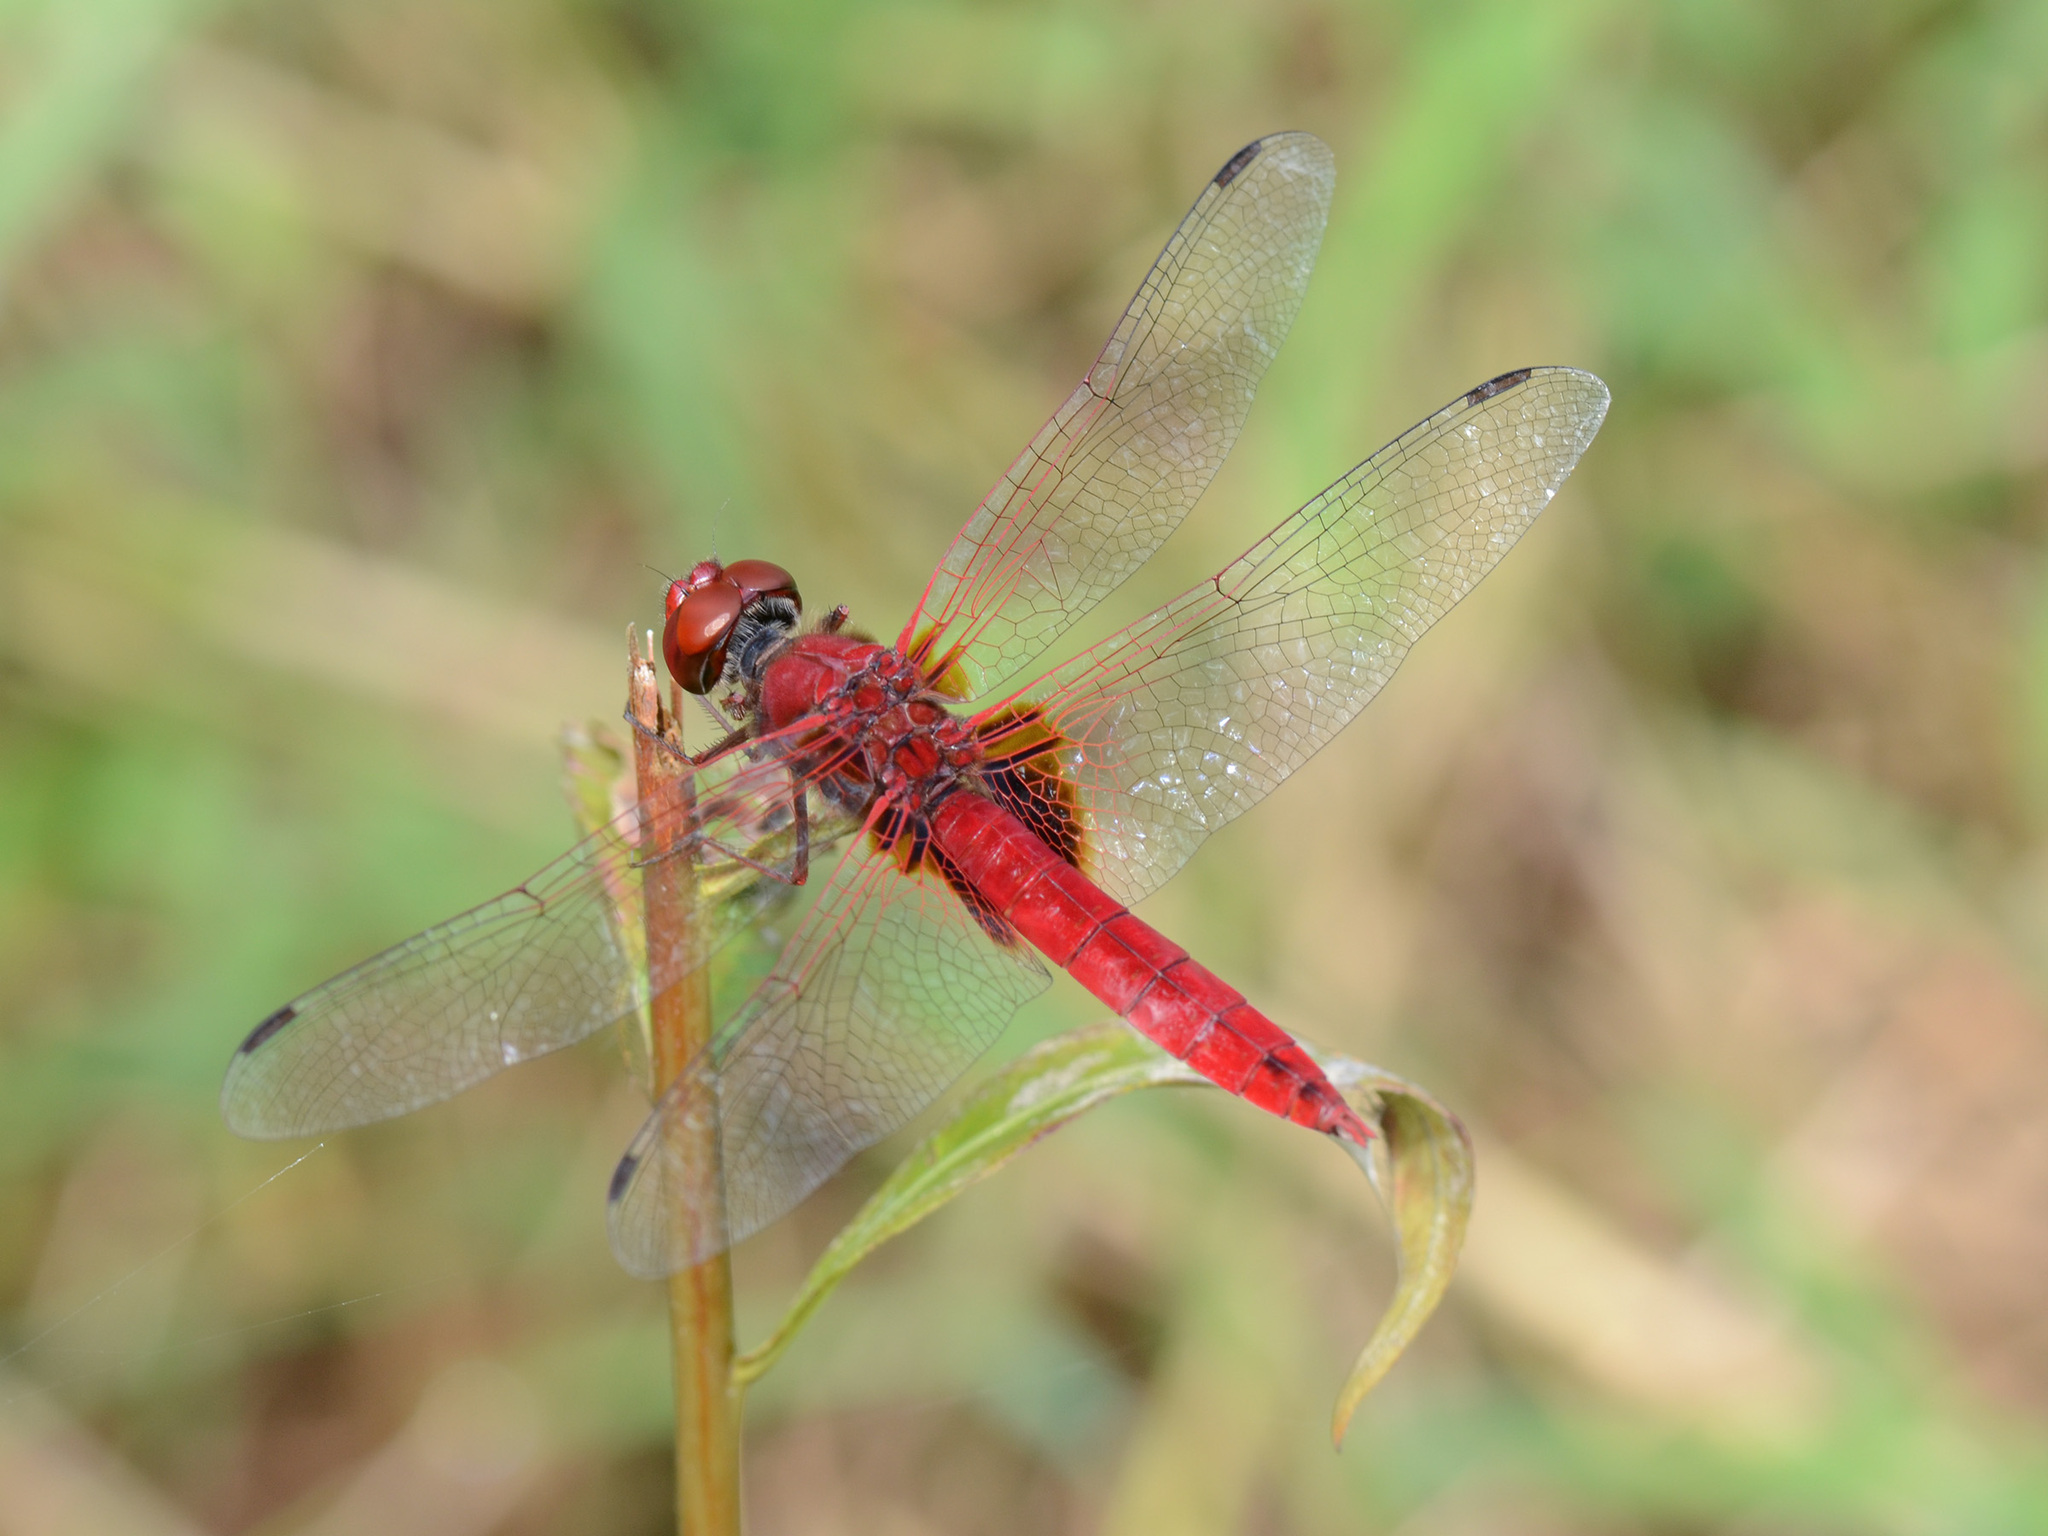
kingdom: Animalia
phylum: Arthropoda
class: Insecta
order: Odonata
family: Libellulidae
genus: Urothemis
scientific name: Urothemis signata
